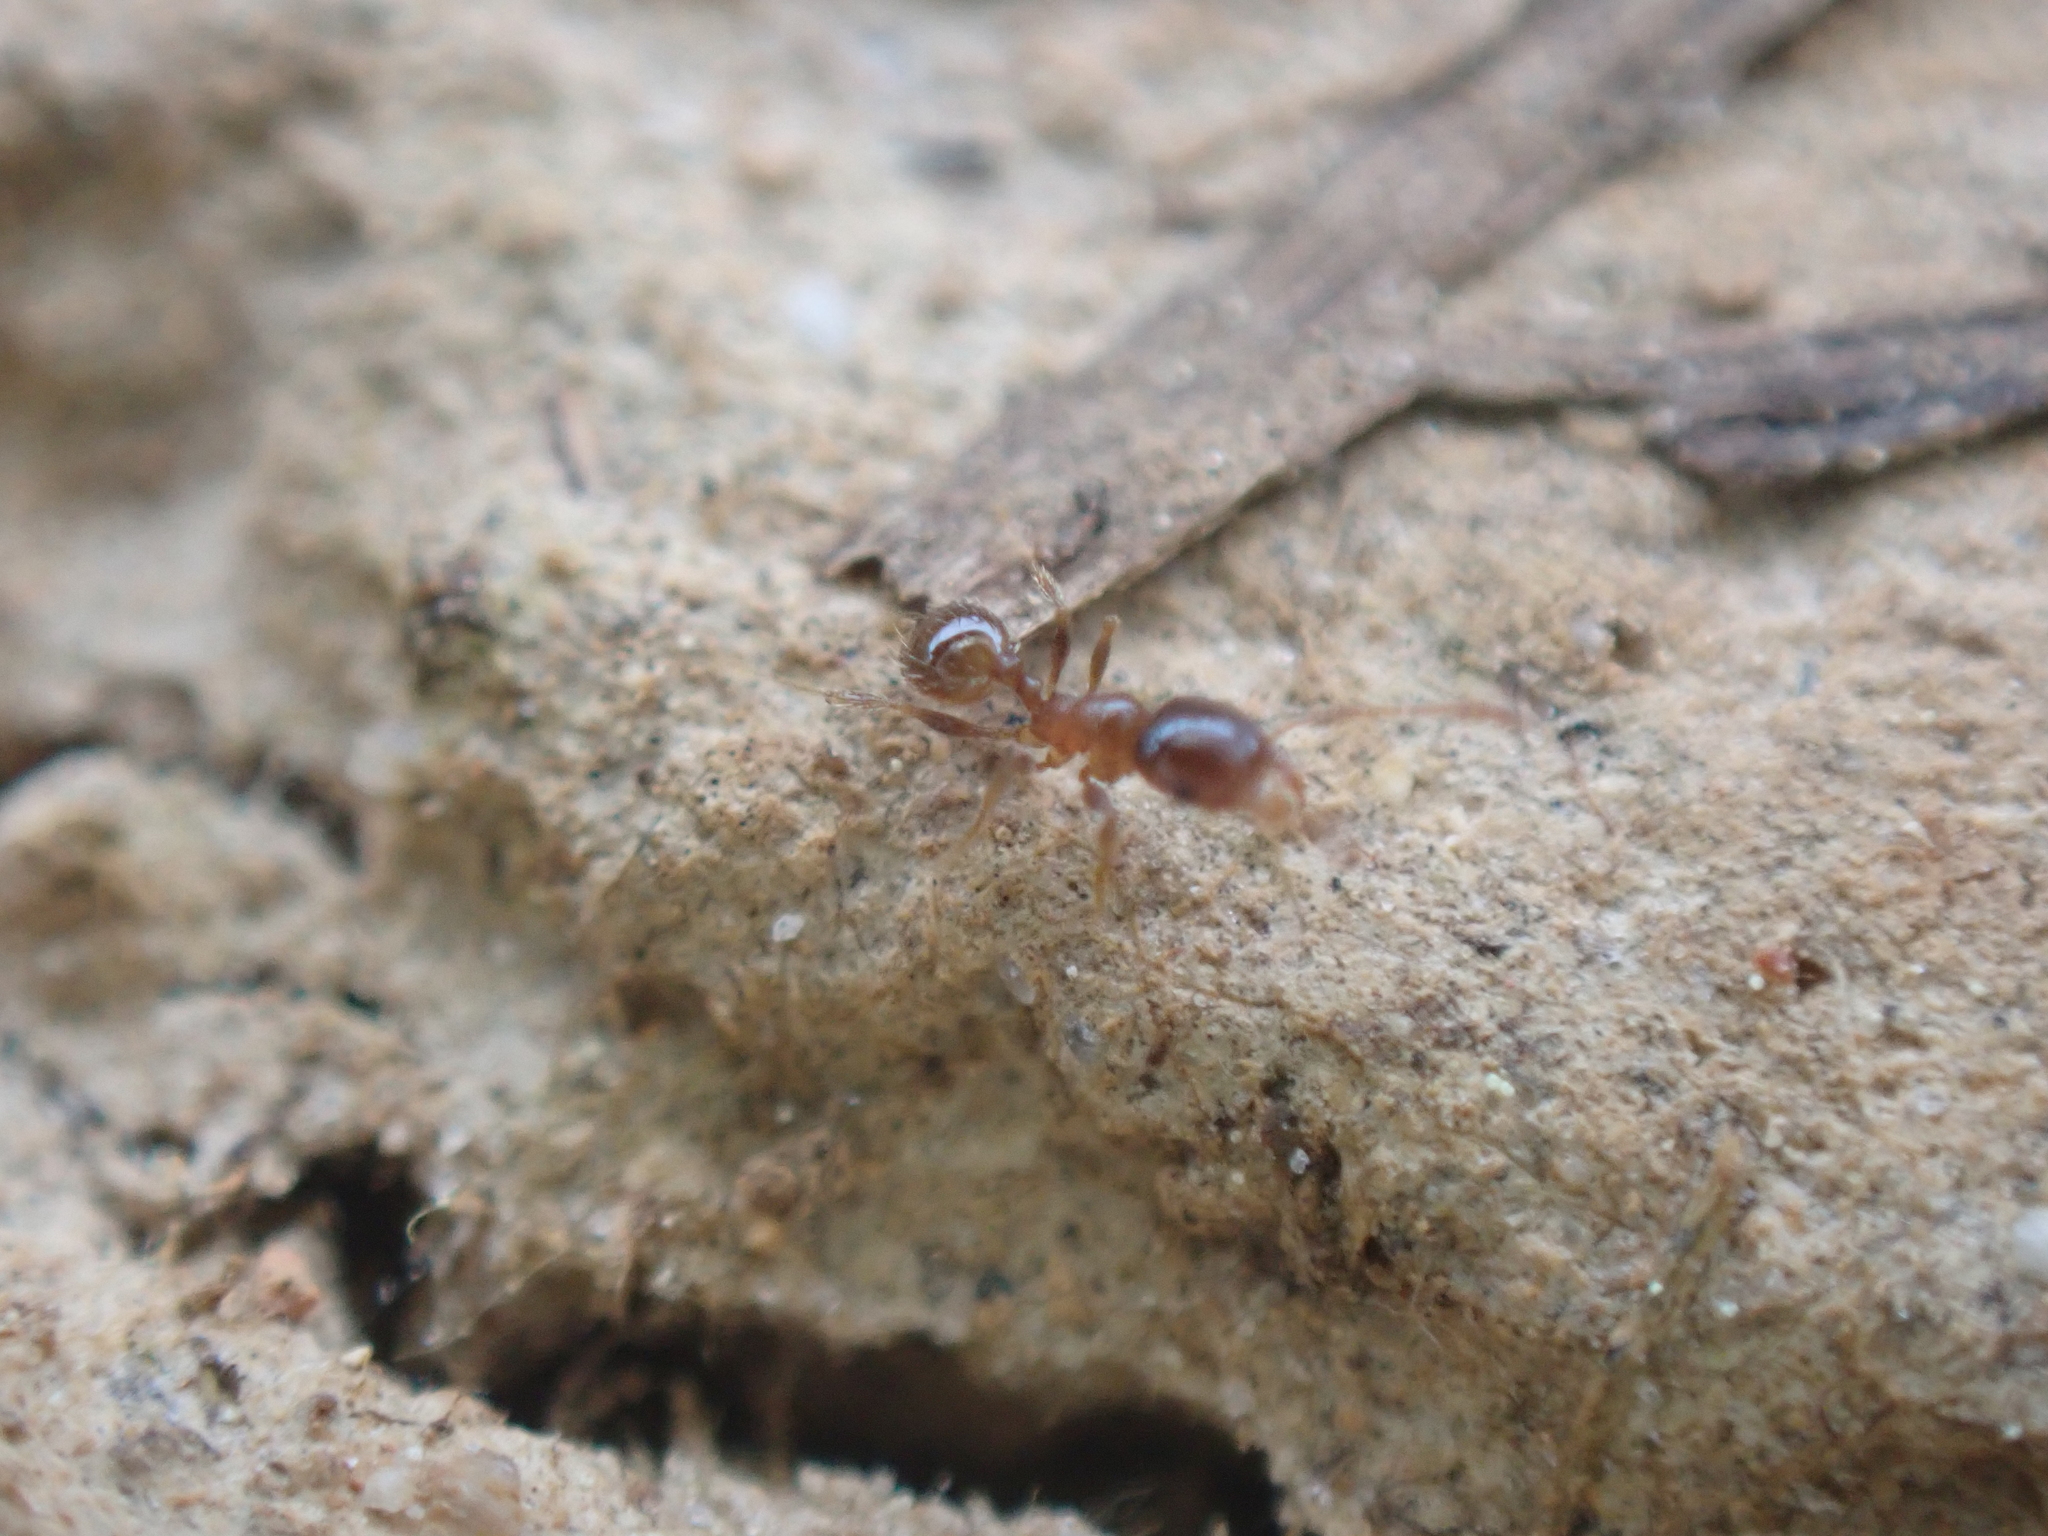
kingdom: Animalia
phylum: Arthropoda
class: Insecta
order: Hymenoptera
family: Formicidae
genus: Pheidole
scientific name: Pheidole bicarinata
